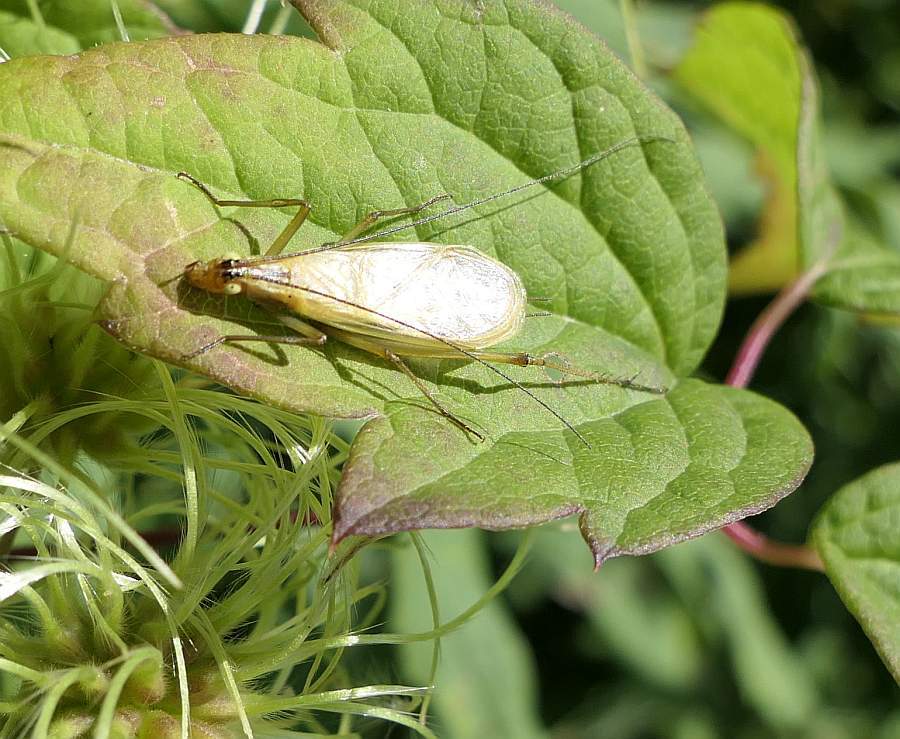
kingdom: Animalia
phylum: Arthropoda
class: Insecta
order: Orthoptera
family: Gryllidae
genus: Oecanthus
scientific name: Oecanthus nigricornis
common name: Black-horned tree cricket
